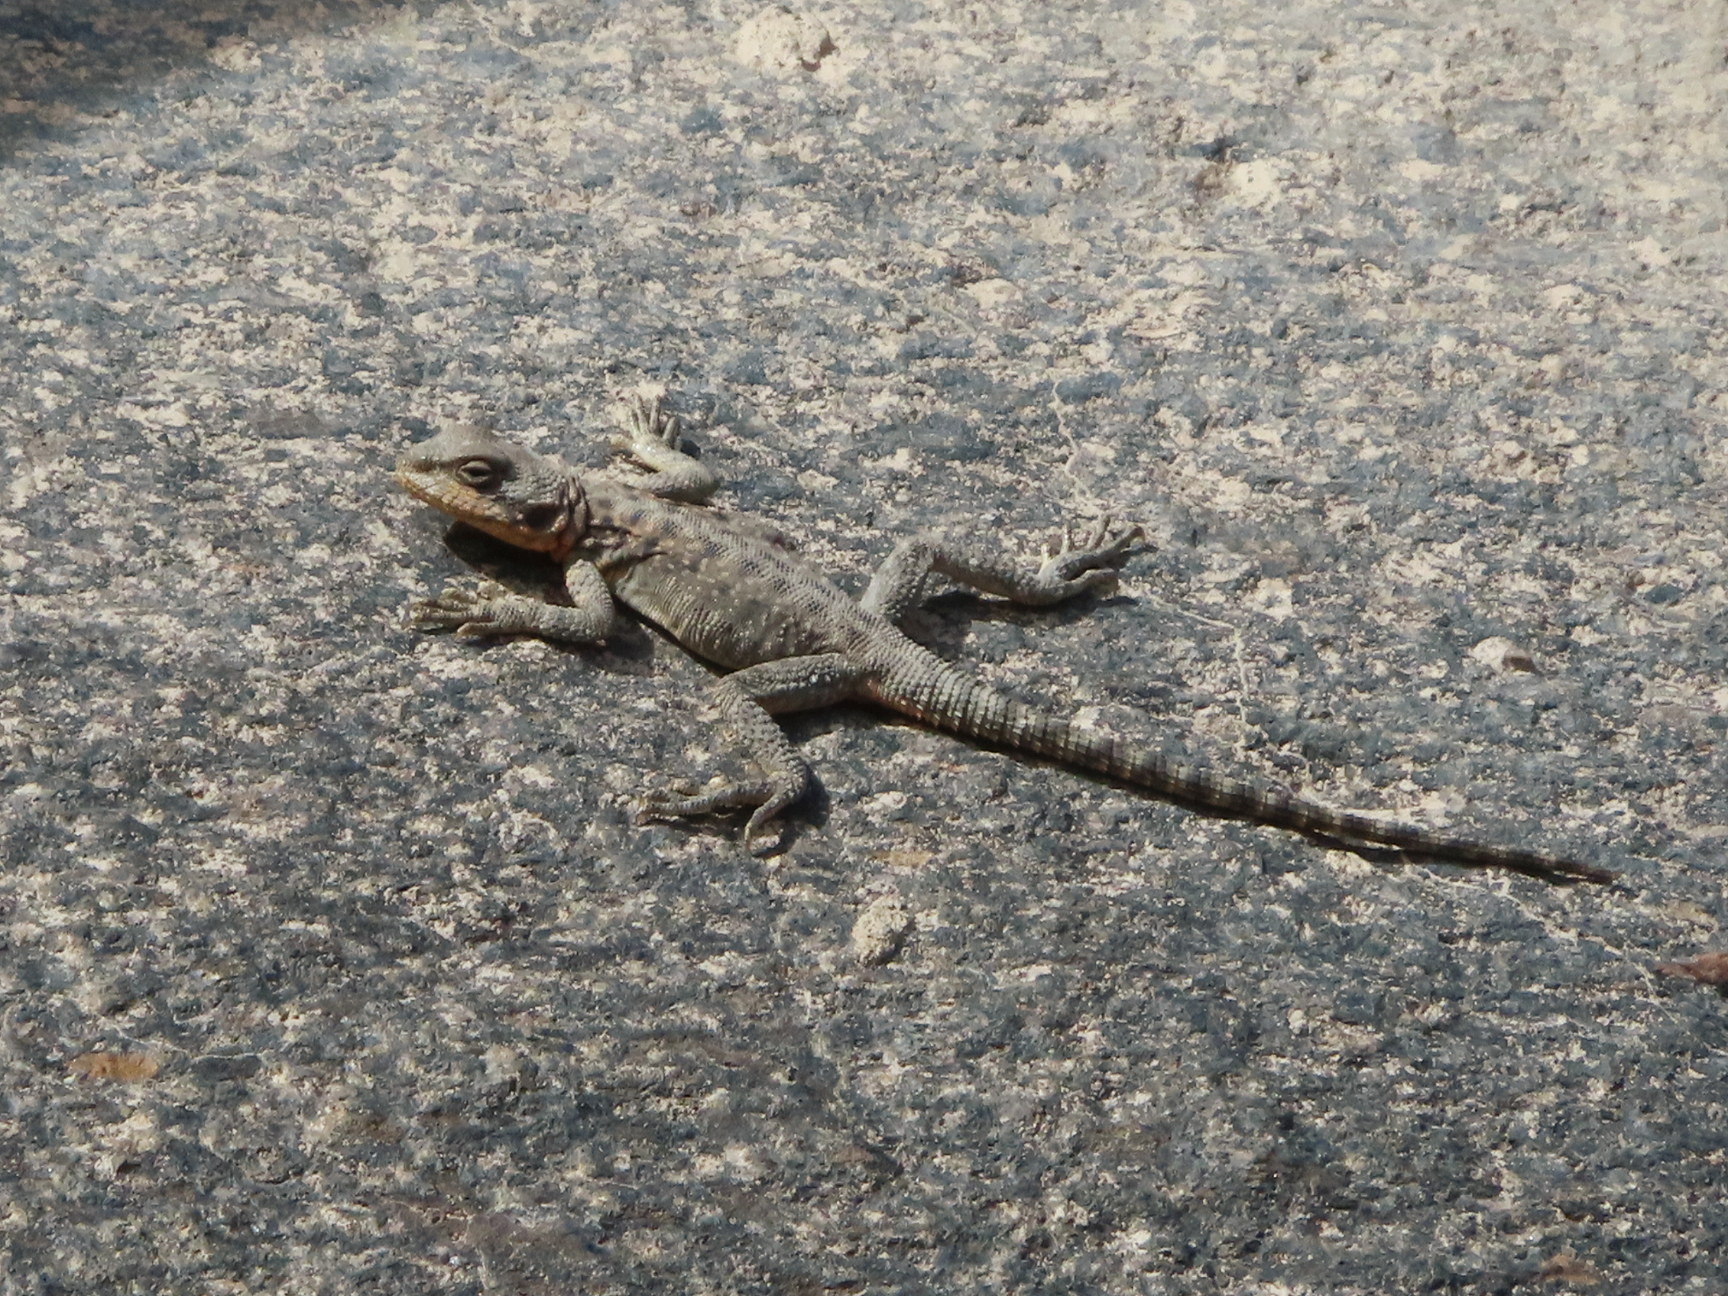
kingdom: Animalia
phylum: Chordata
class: Squamata
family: Agamidae
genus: Paralaudakia
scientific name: Paralaudakia caucasia
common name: Caucasian agama
